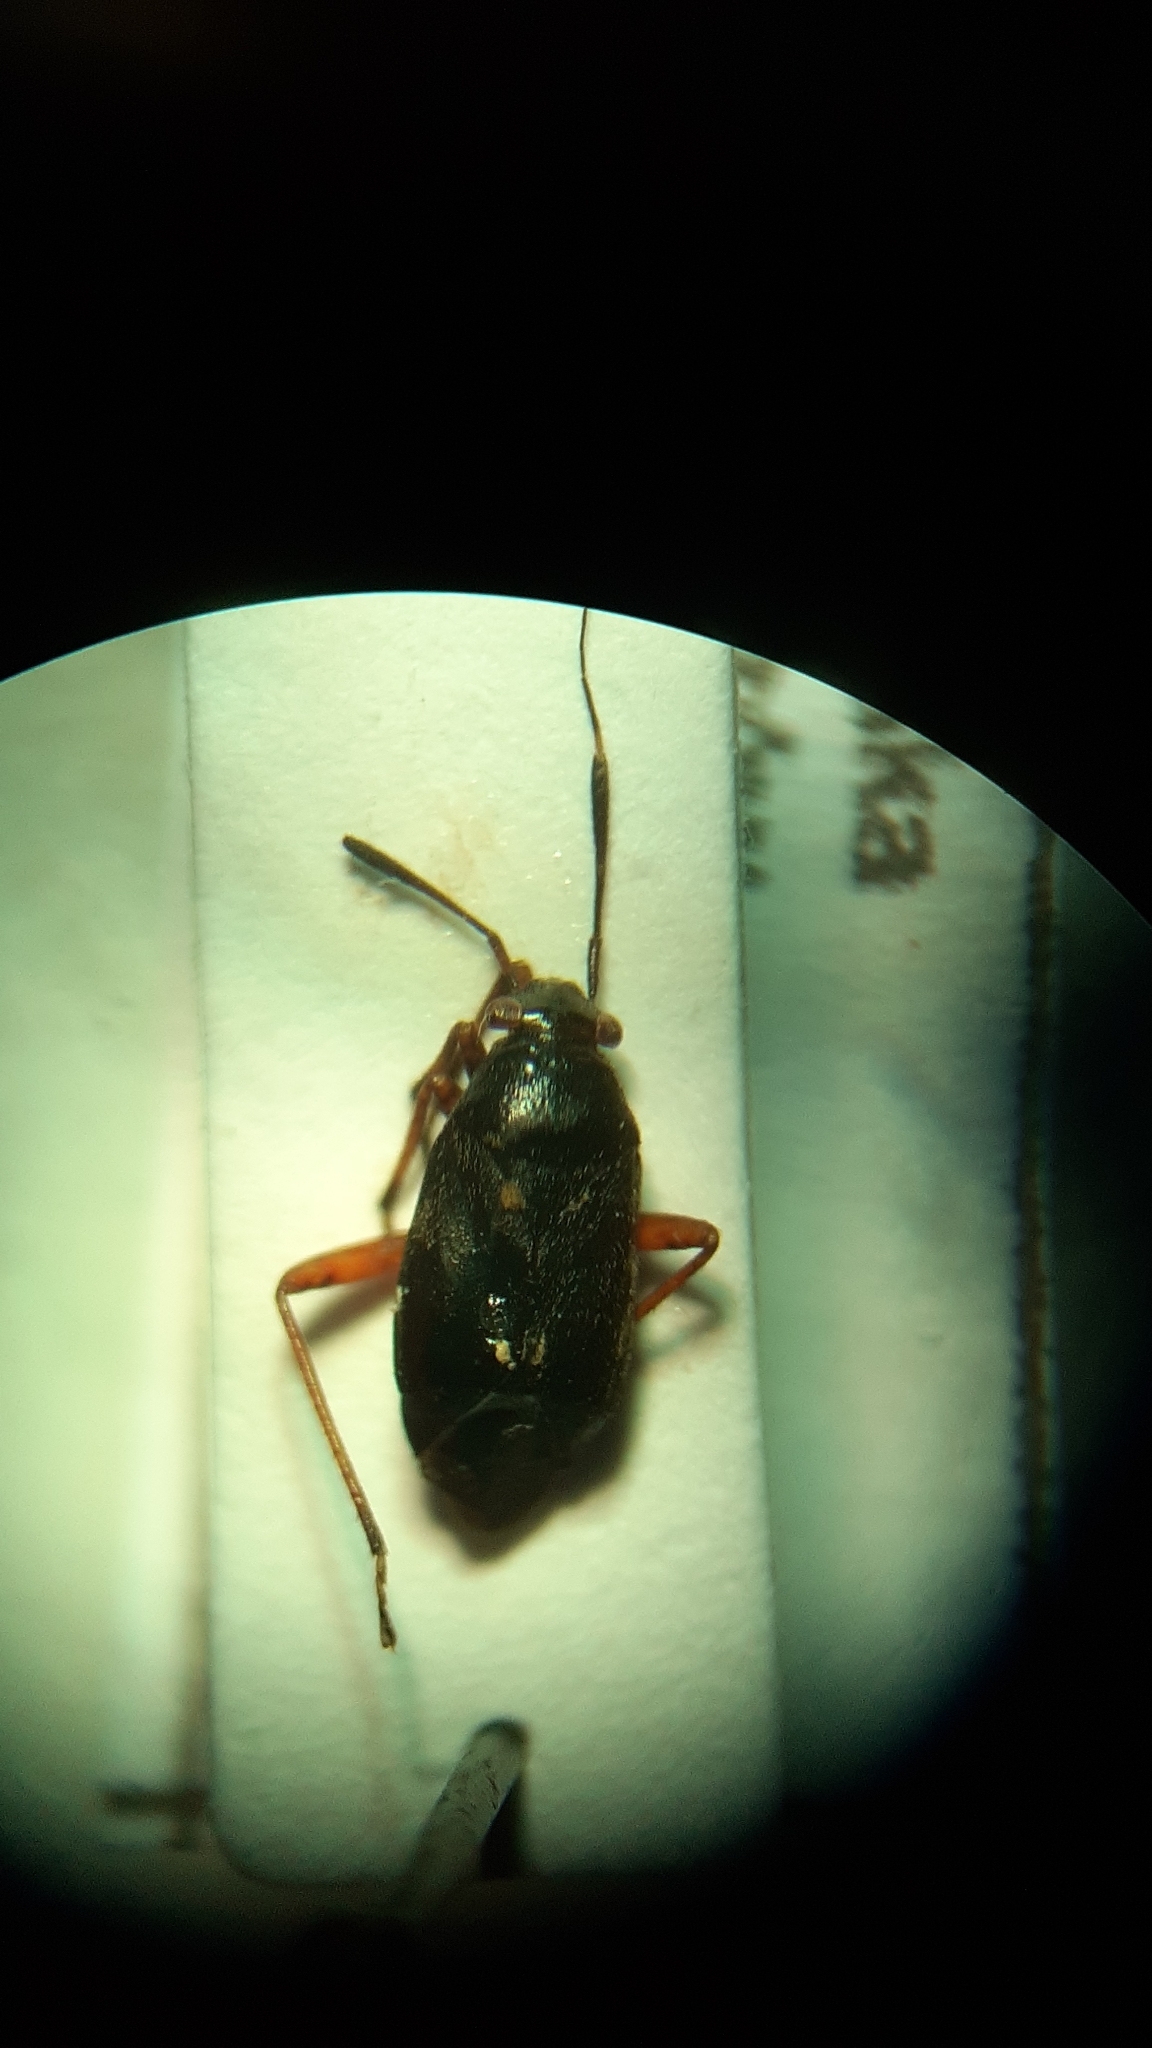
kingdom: Animalia
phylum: Arthropoda
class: Insecta
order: Hemiptera
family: Miridae
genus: Capsus
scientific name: Capsus ater
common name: Black plant bug
